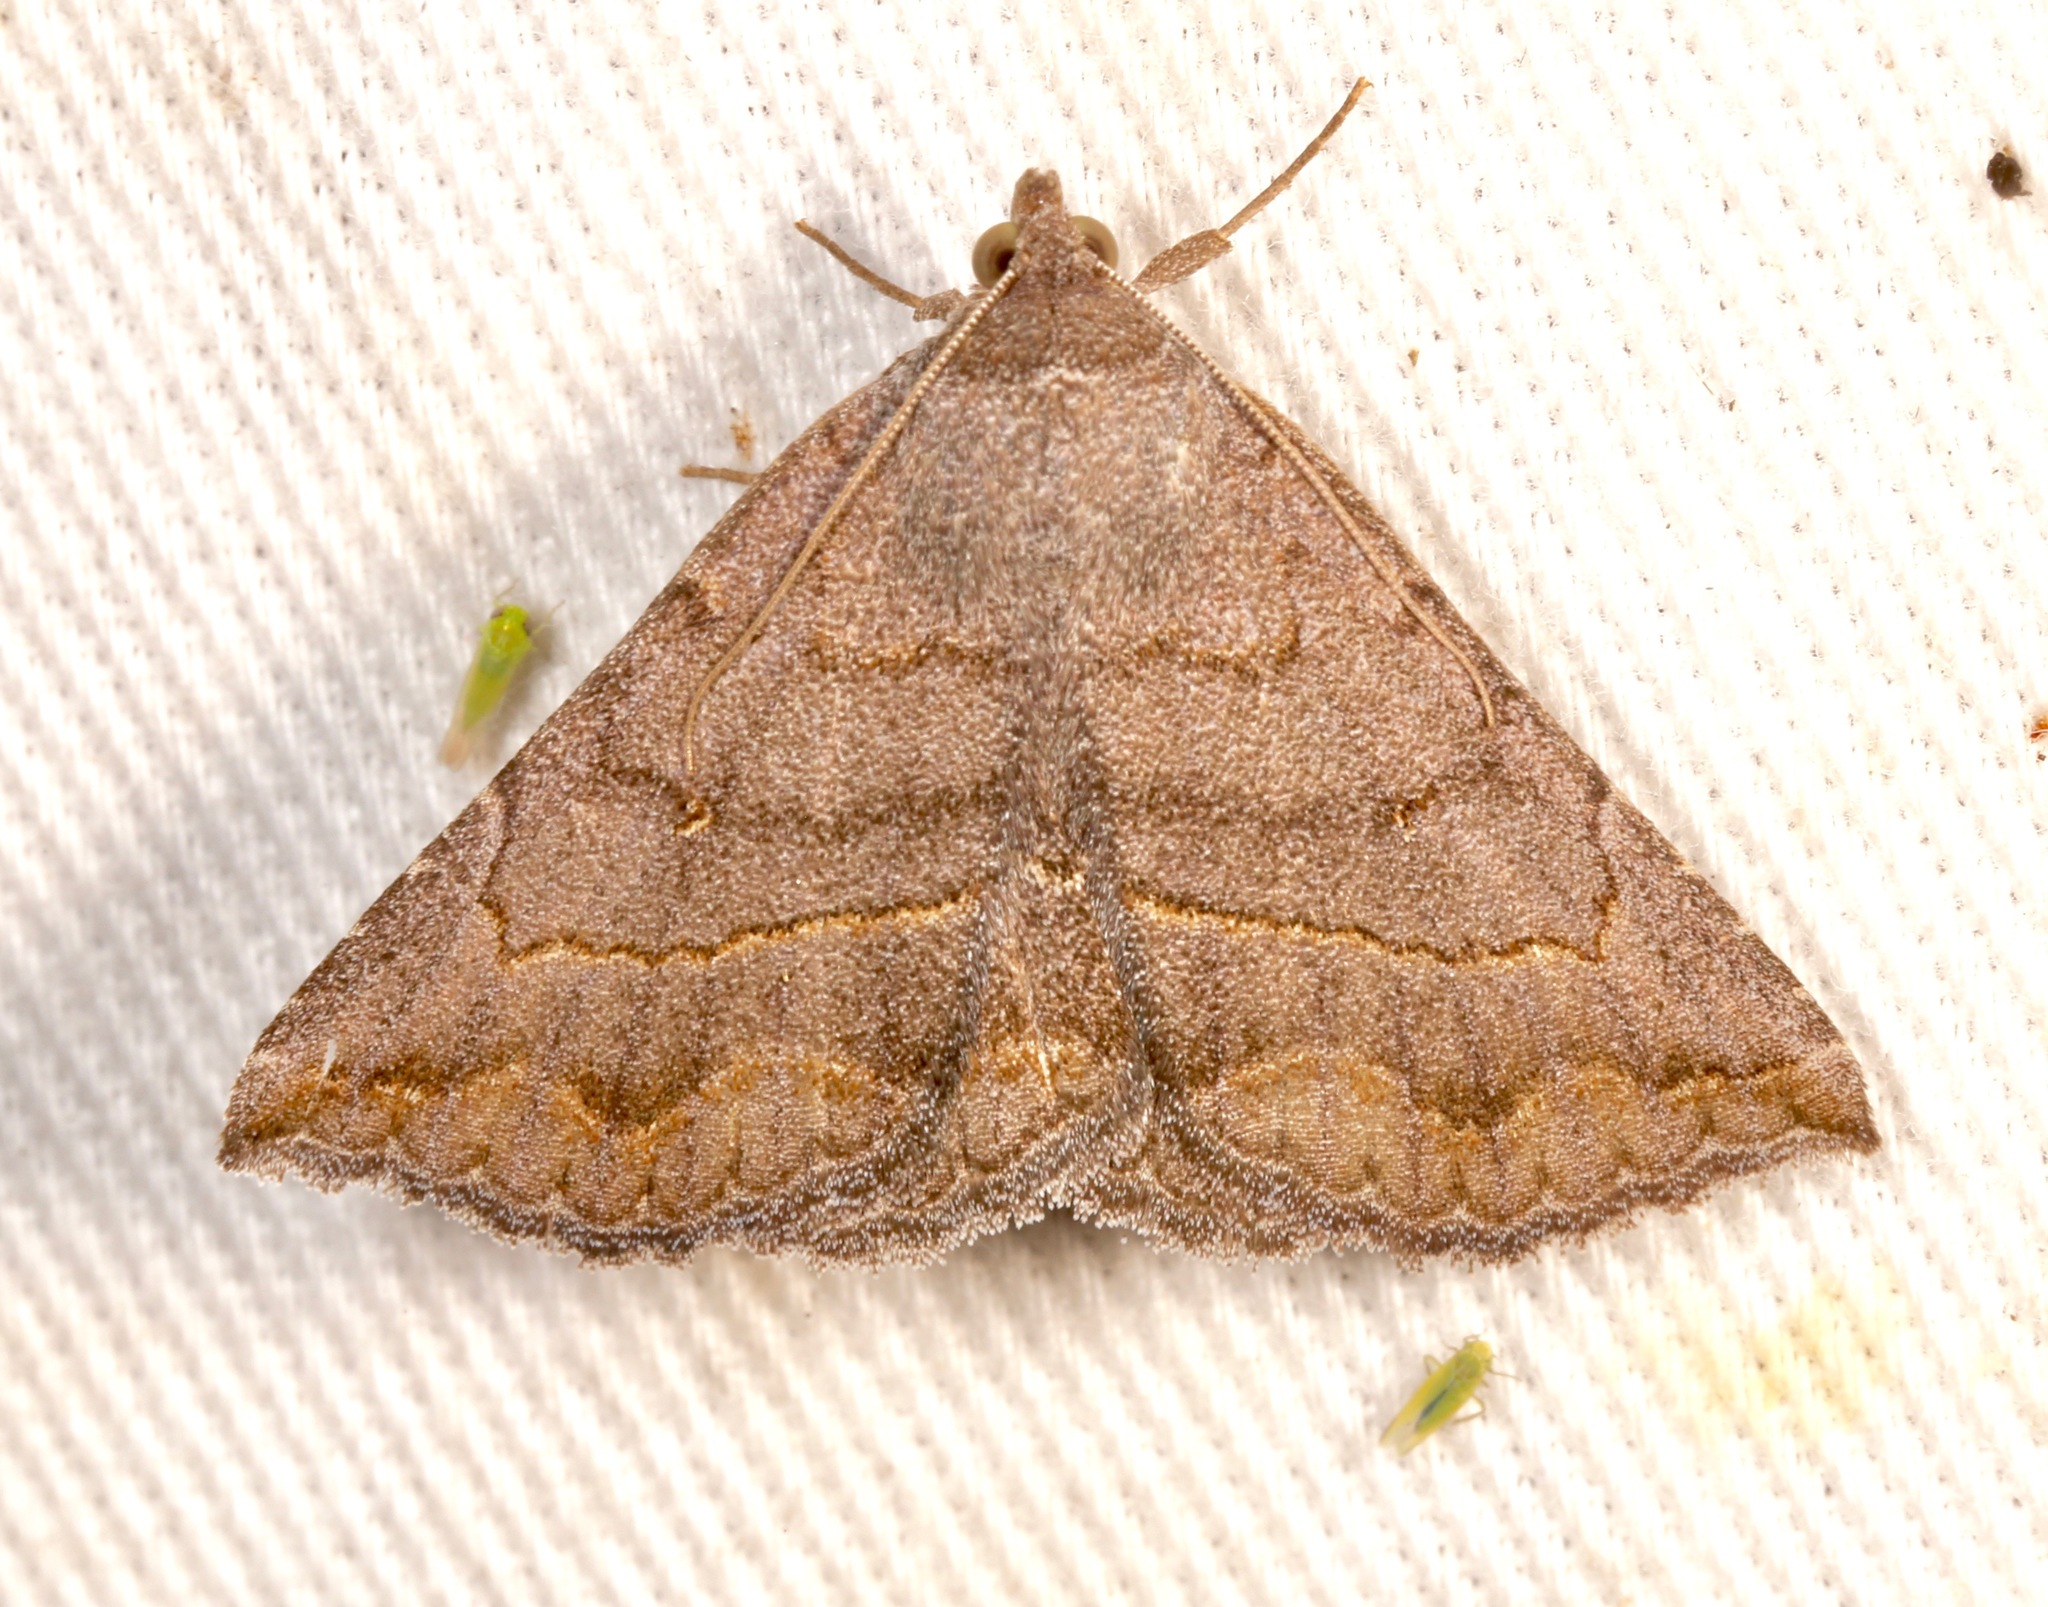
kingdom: Animalia
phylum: Arthropoda
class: Insecta
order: Lepidoptera
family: Erebidae
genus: Lesmone
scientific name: Lesmone griseipennis
